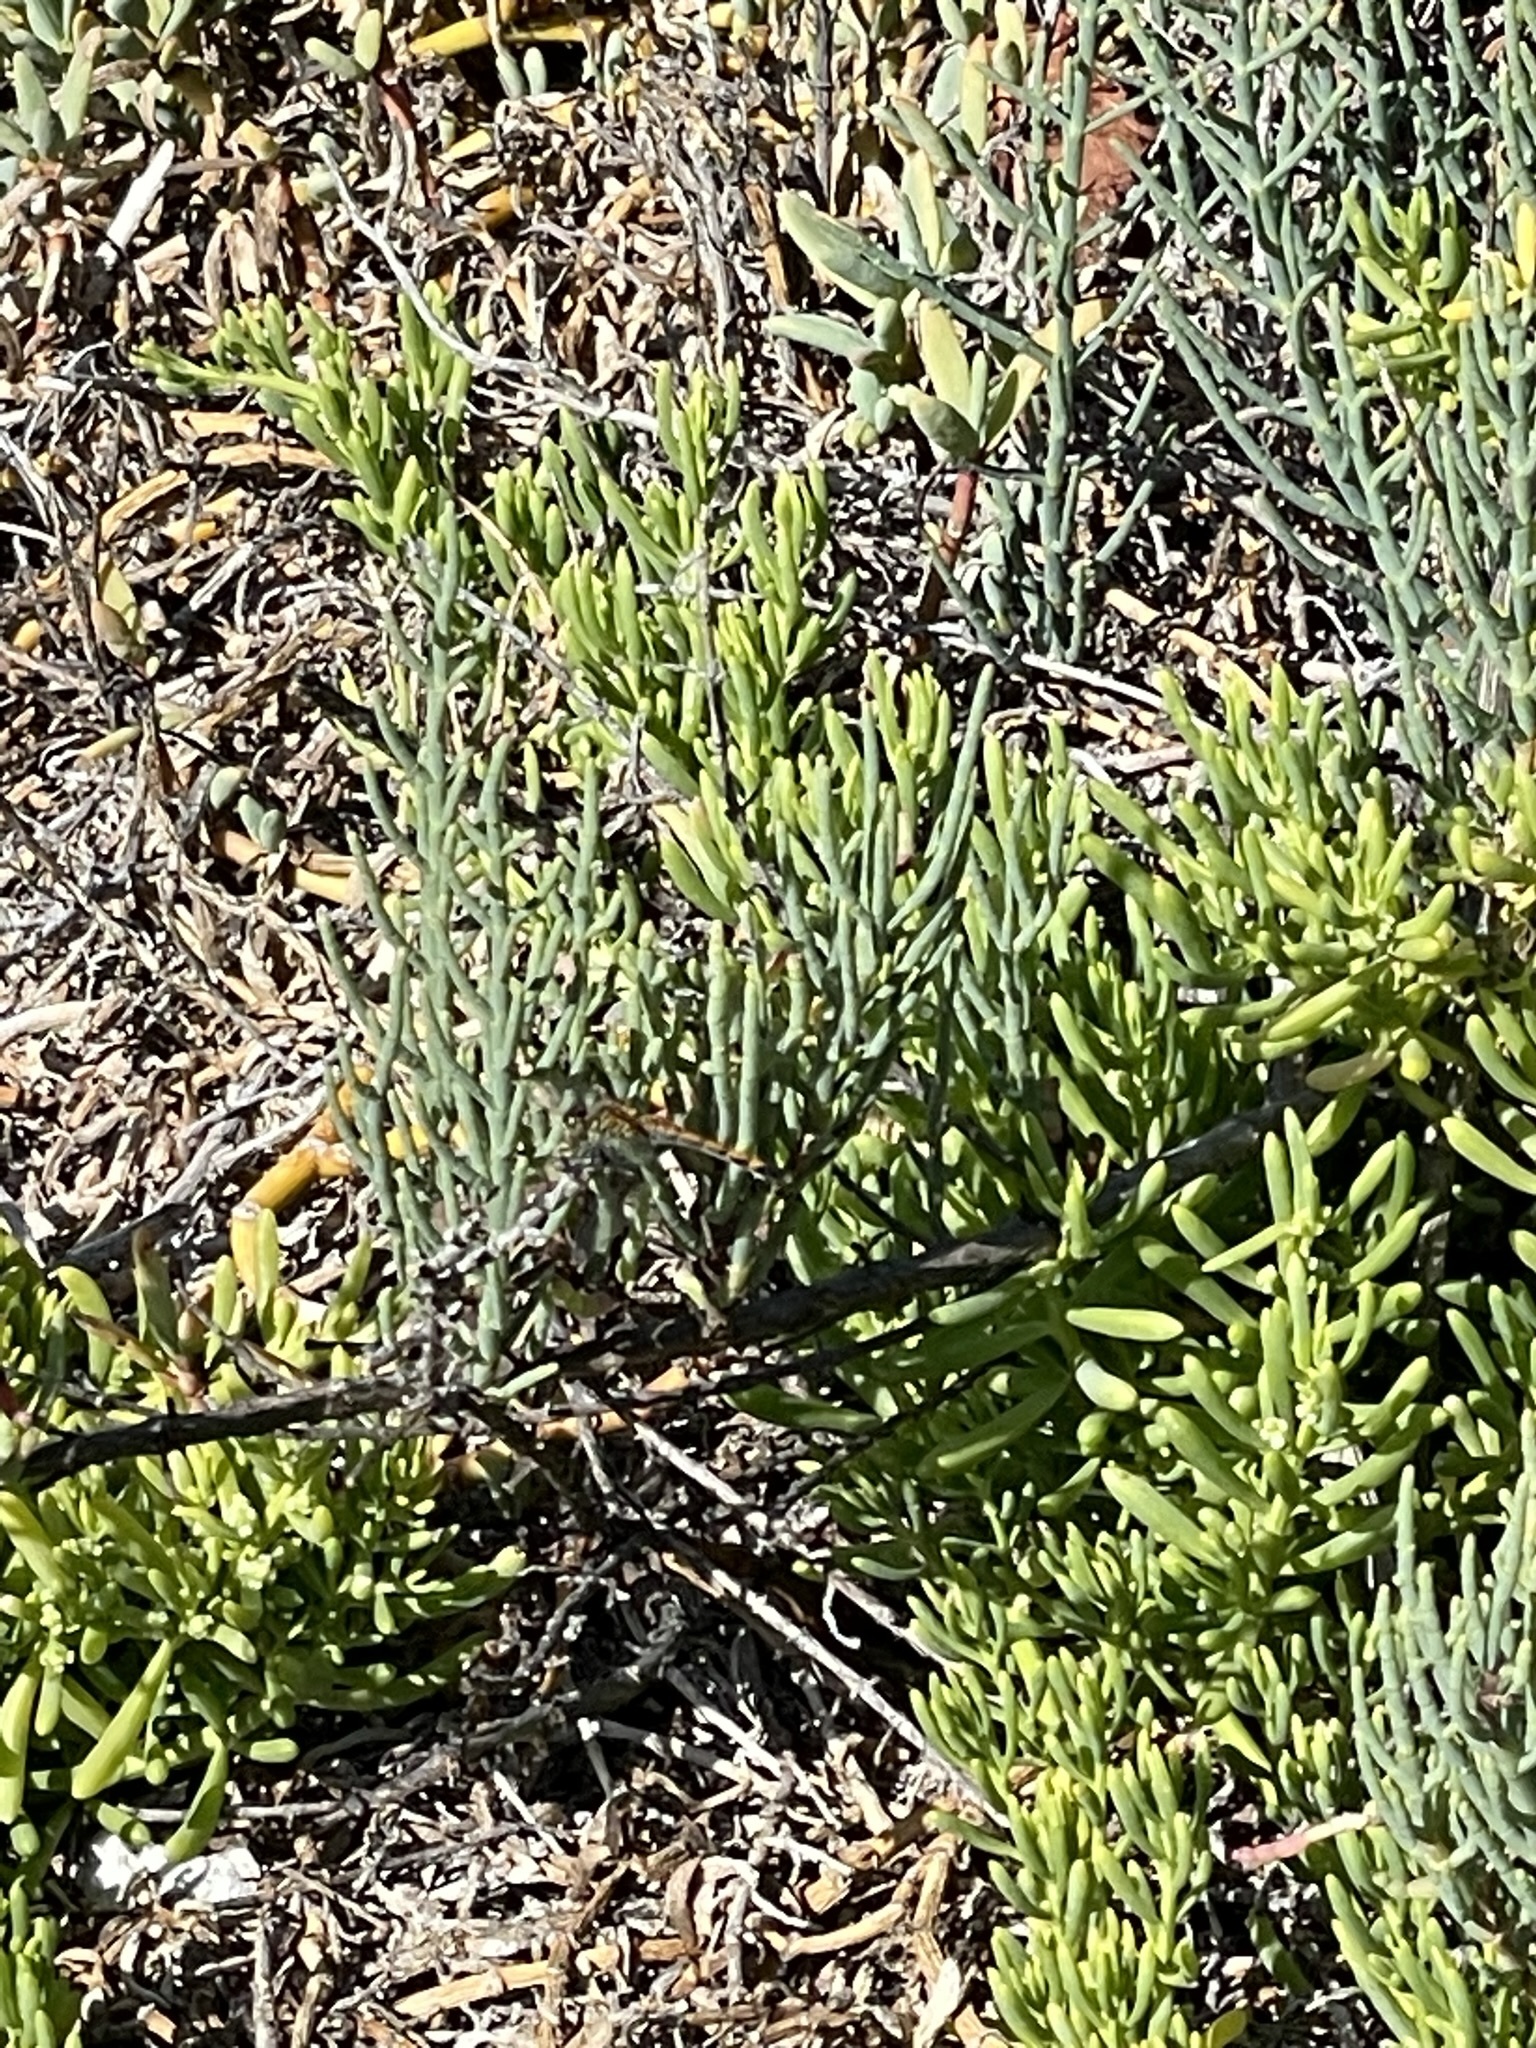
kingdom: Plantae
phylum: Tracheophyta
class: Magnoliopsida
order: Caryophyllales
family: Amaranthaceae
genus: Salicornia
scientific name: Salicornia pacifica
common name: Pacific glasswort
